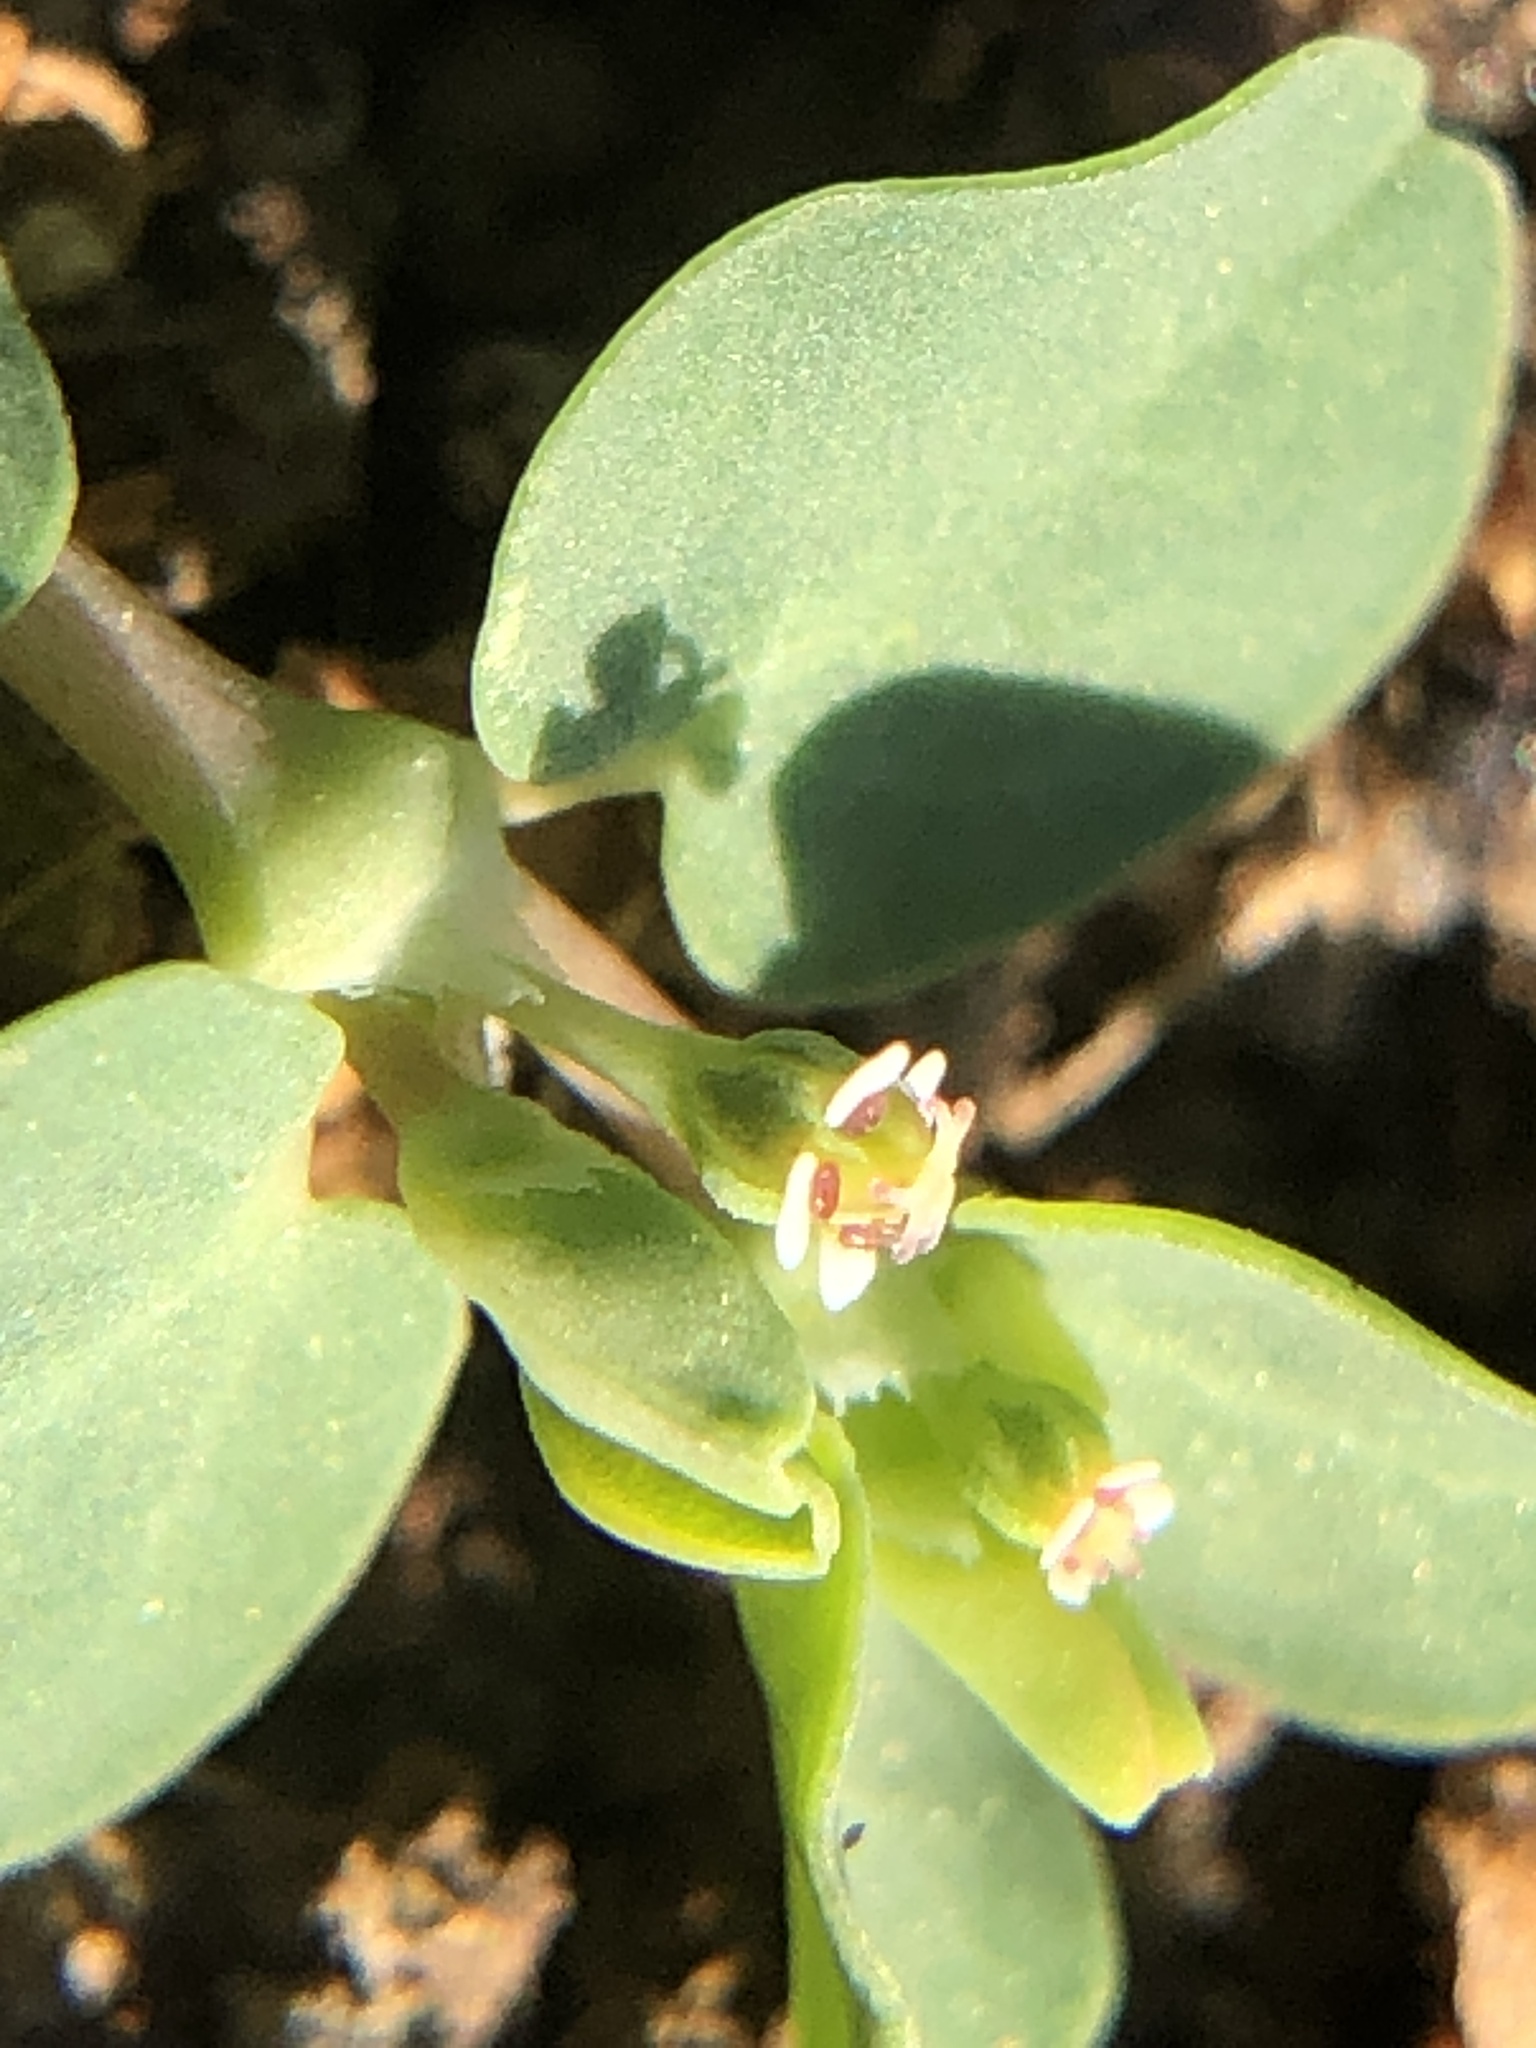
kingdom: Plantae
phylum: Tracheophyta
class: Magnoliopsida
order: Malpighiales
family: Euphorbiaceae
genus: Euphorbia
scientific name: Euphorbia serpens
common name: Matted sandmat
